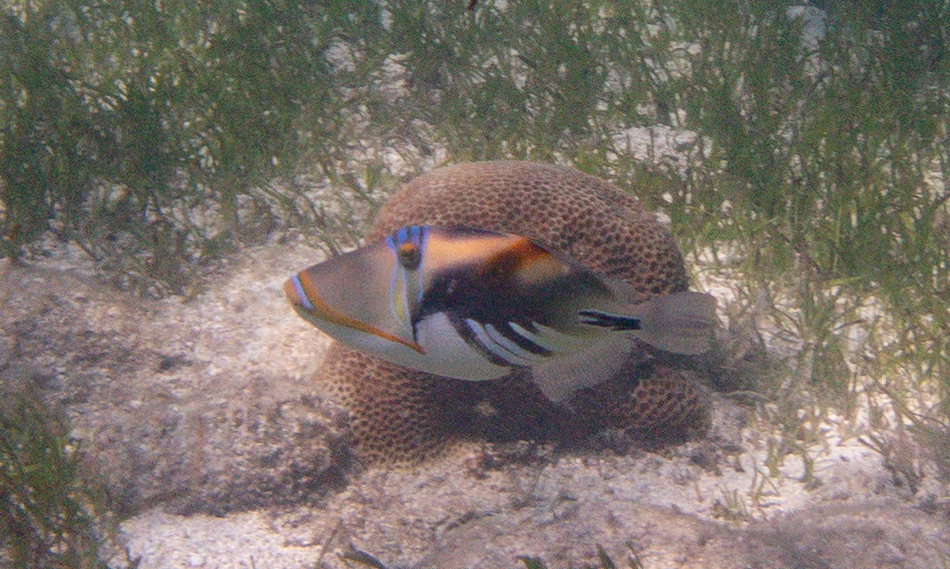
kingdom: Animalia
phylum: Chordata
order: Tetraodontiformes
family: Balistidae
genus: Rhinecanthus
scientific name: Rhinecanthus aculeatus
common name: White-banded triggerfish
